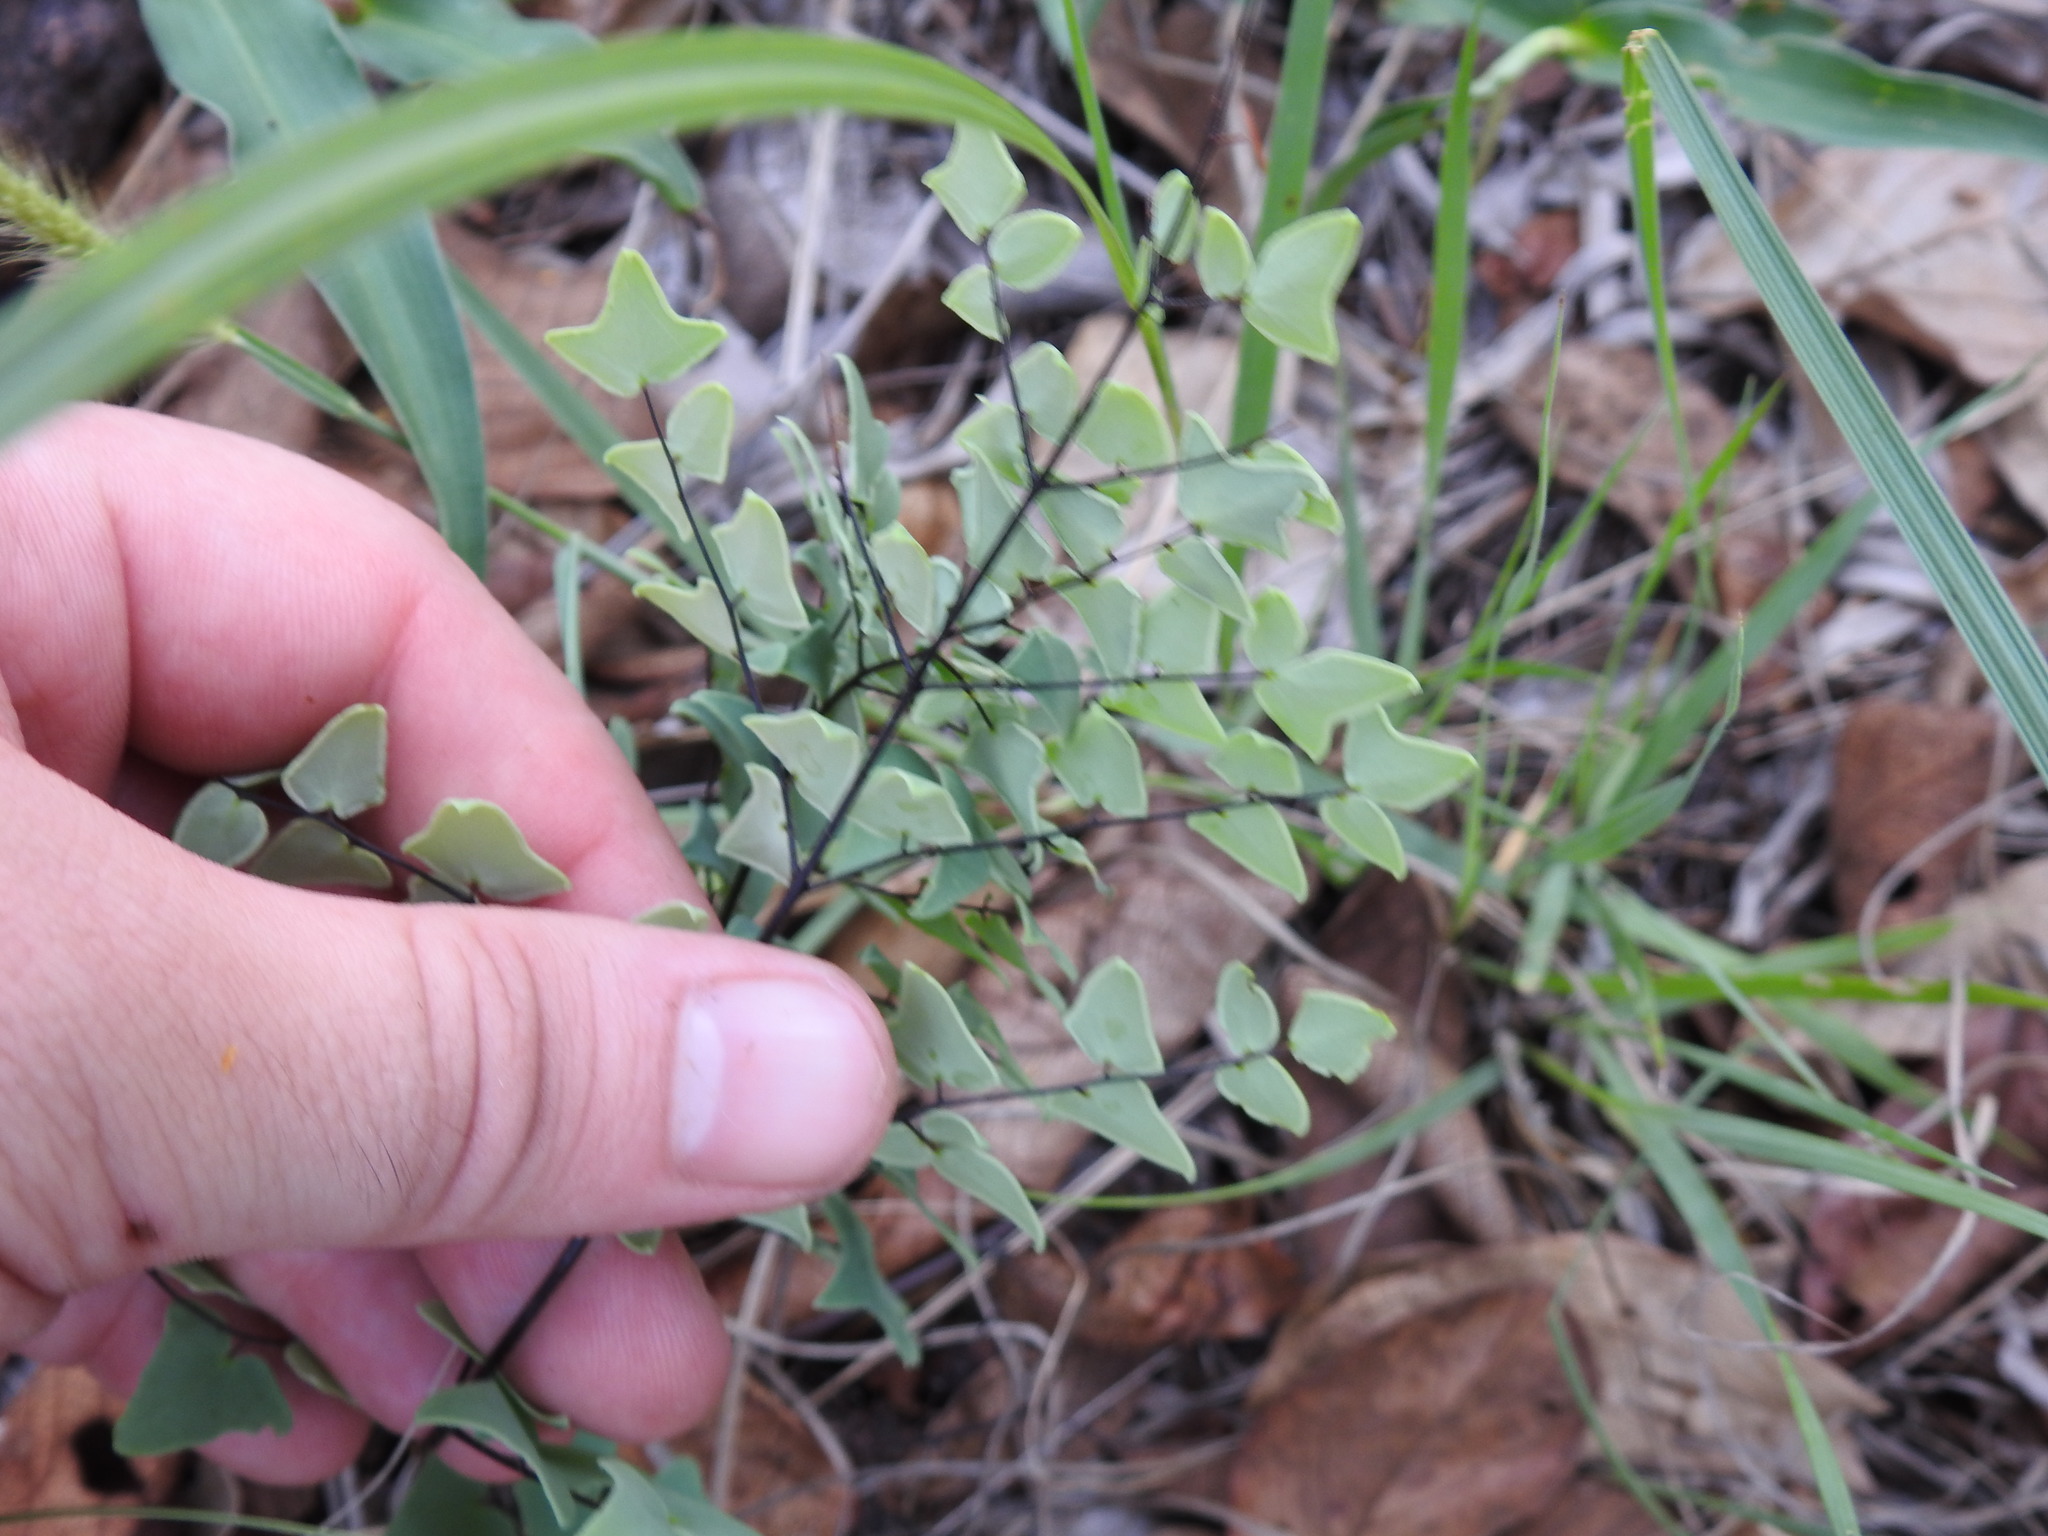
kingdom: Plantae
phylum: Tracheophyta
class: Polypodiopsida
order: Polypodiales
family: Pteridaceae
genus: Pellaea
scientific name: Pellaea calomelanos
